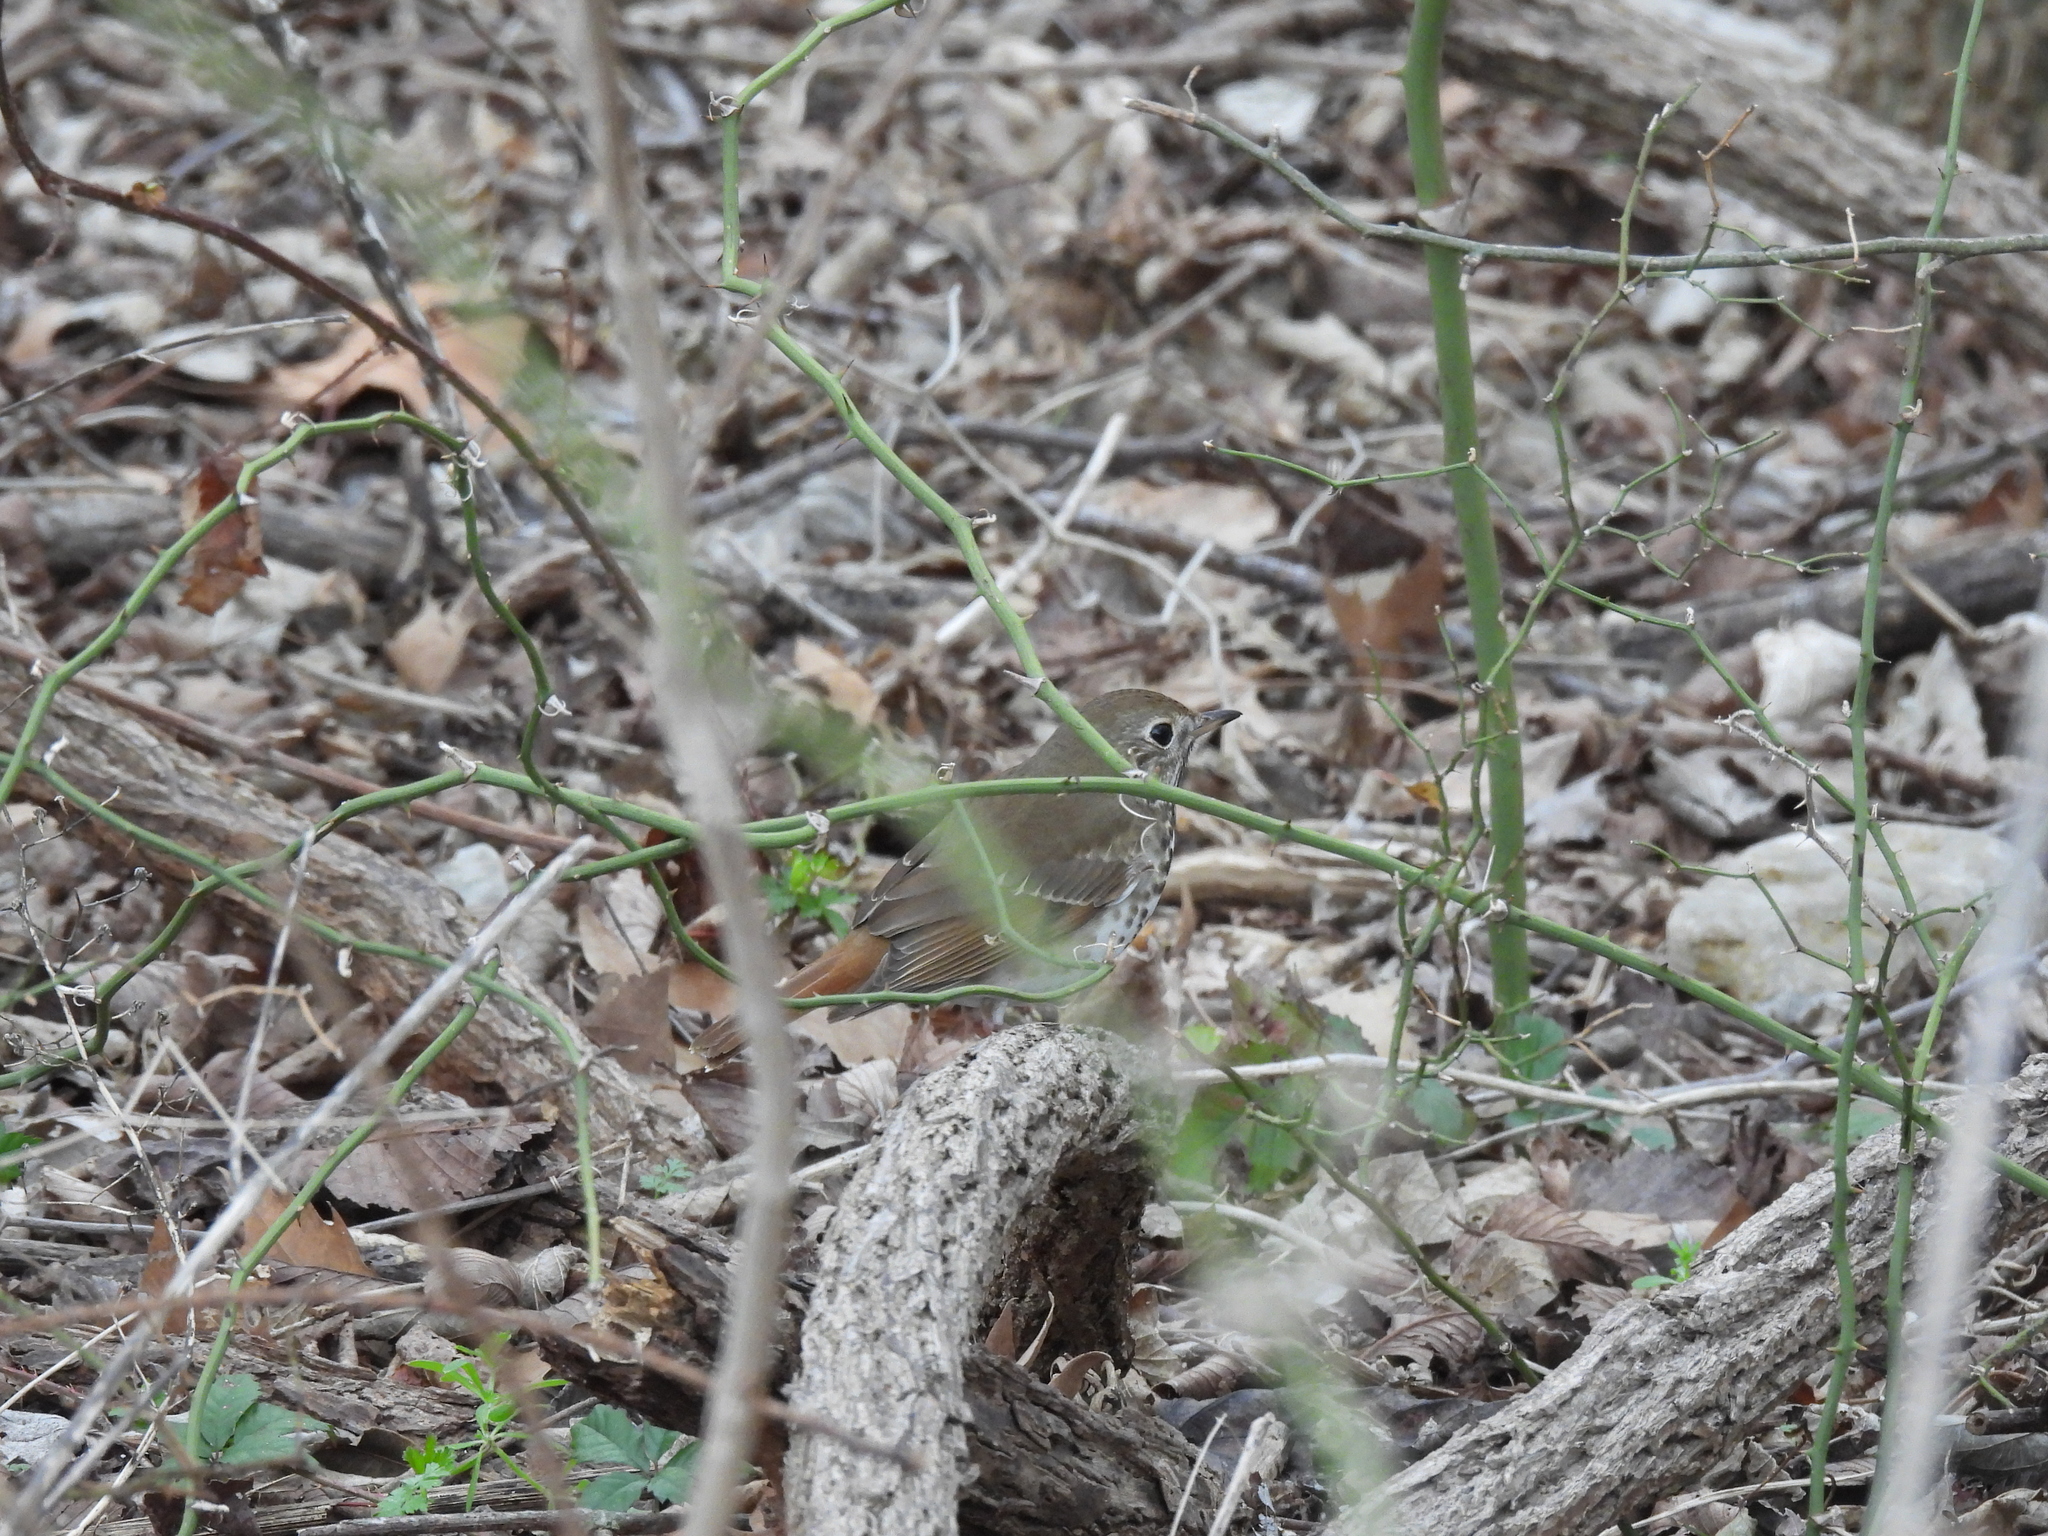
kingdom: Animalia
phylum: Chordata
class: Aves
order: Passeriformes
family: Turdidae
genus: Catharus
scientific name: Catharus guttatus
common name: Hermit thrush
